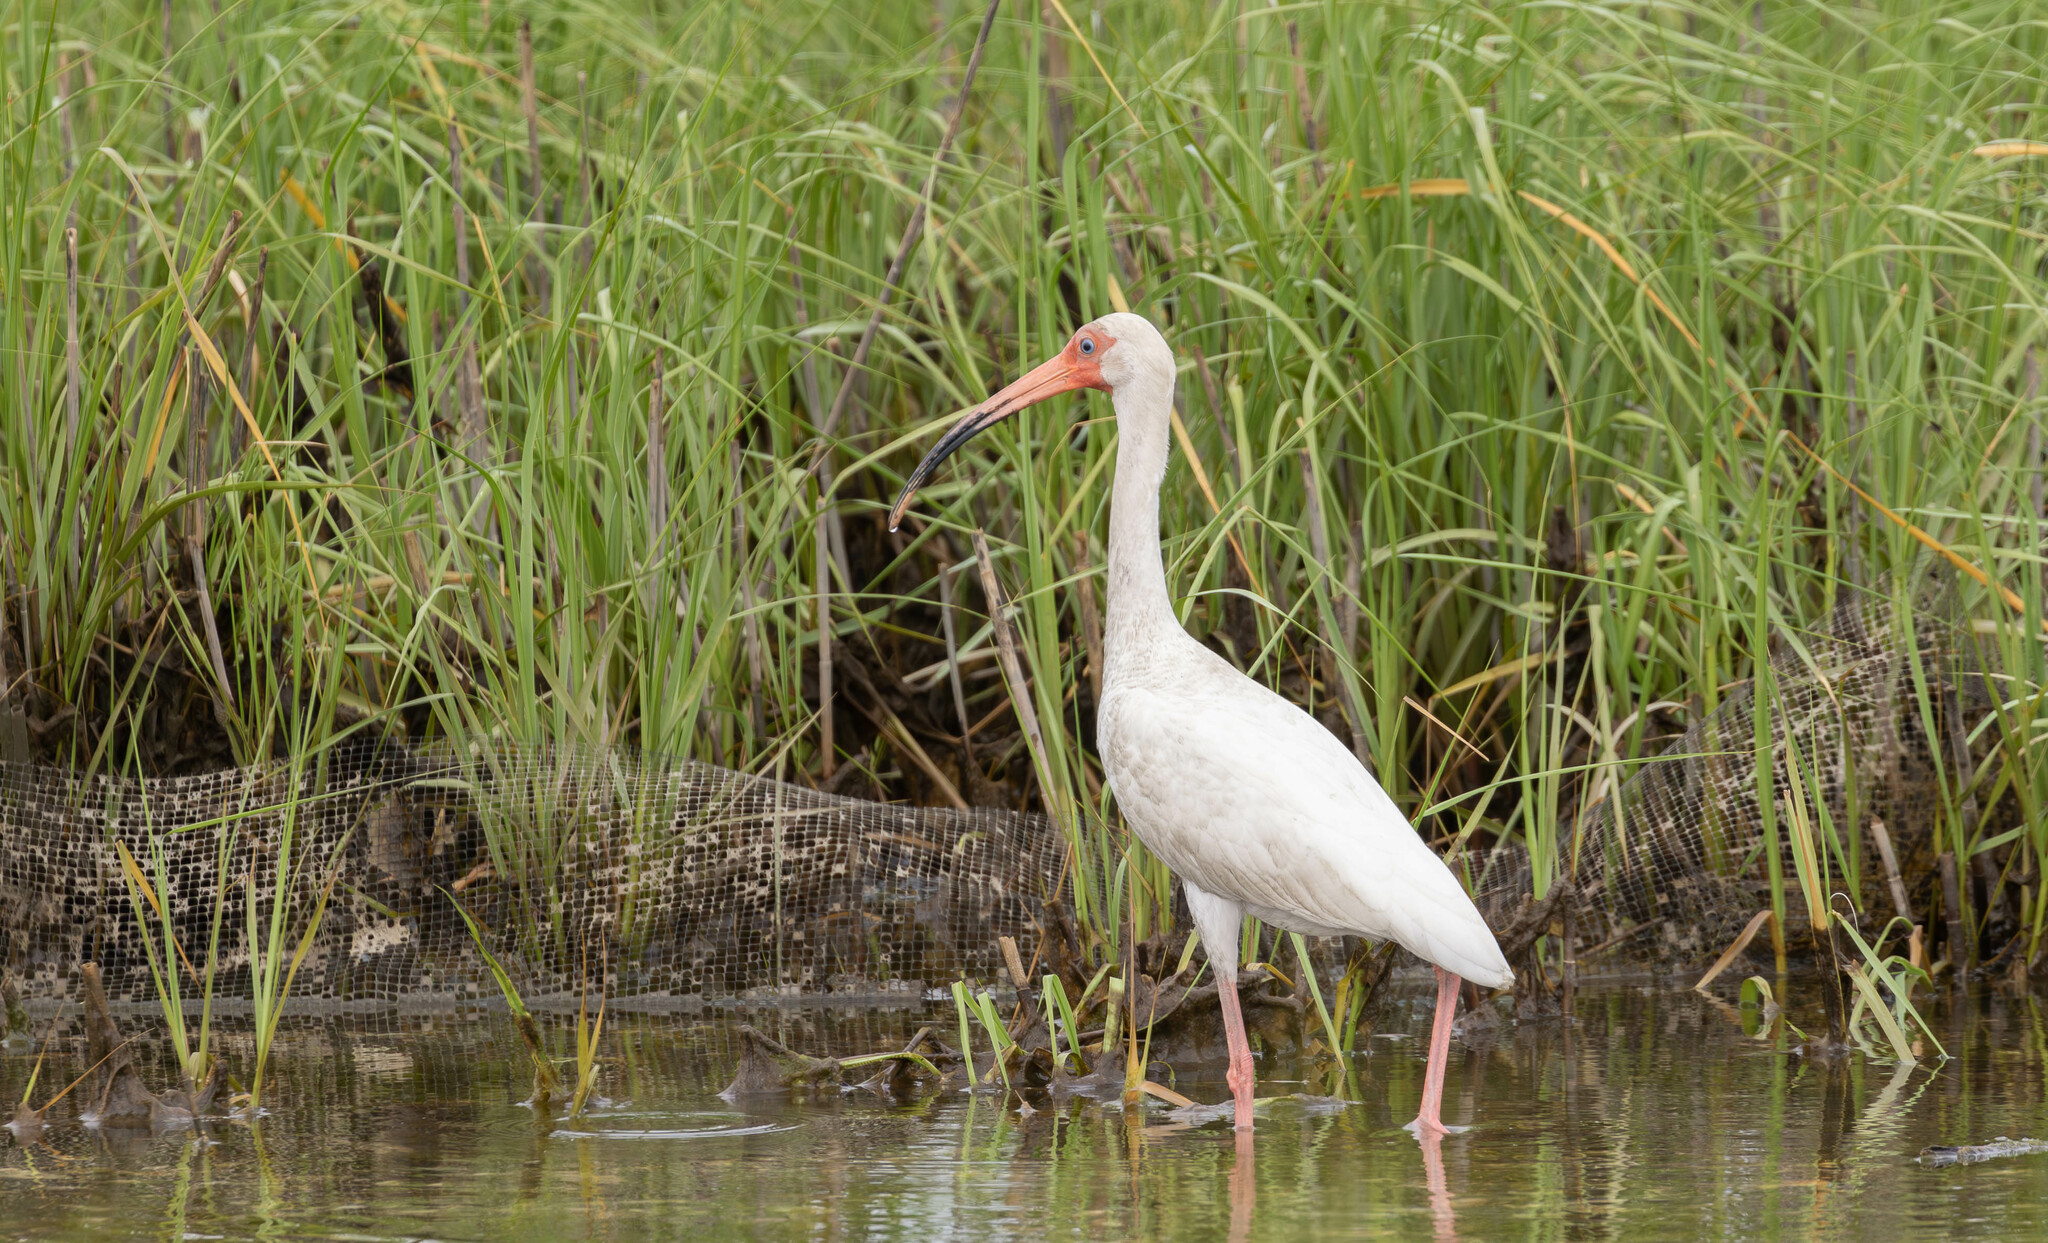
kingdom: Animalia
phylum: Chordata
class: Aves
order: Pelecaniformes
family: Threskiornithidae
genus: Eudocimus
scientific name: Eudocimus albus
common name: White ibis
